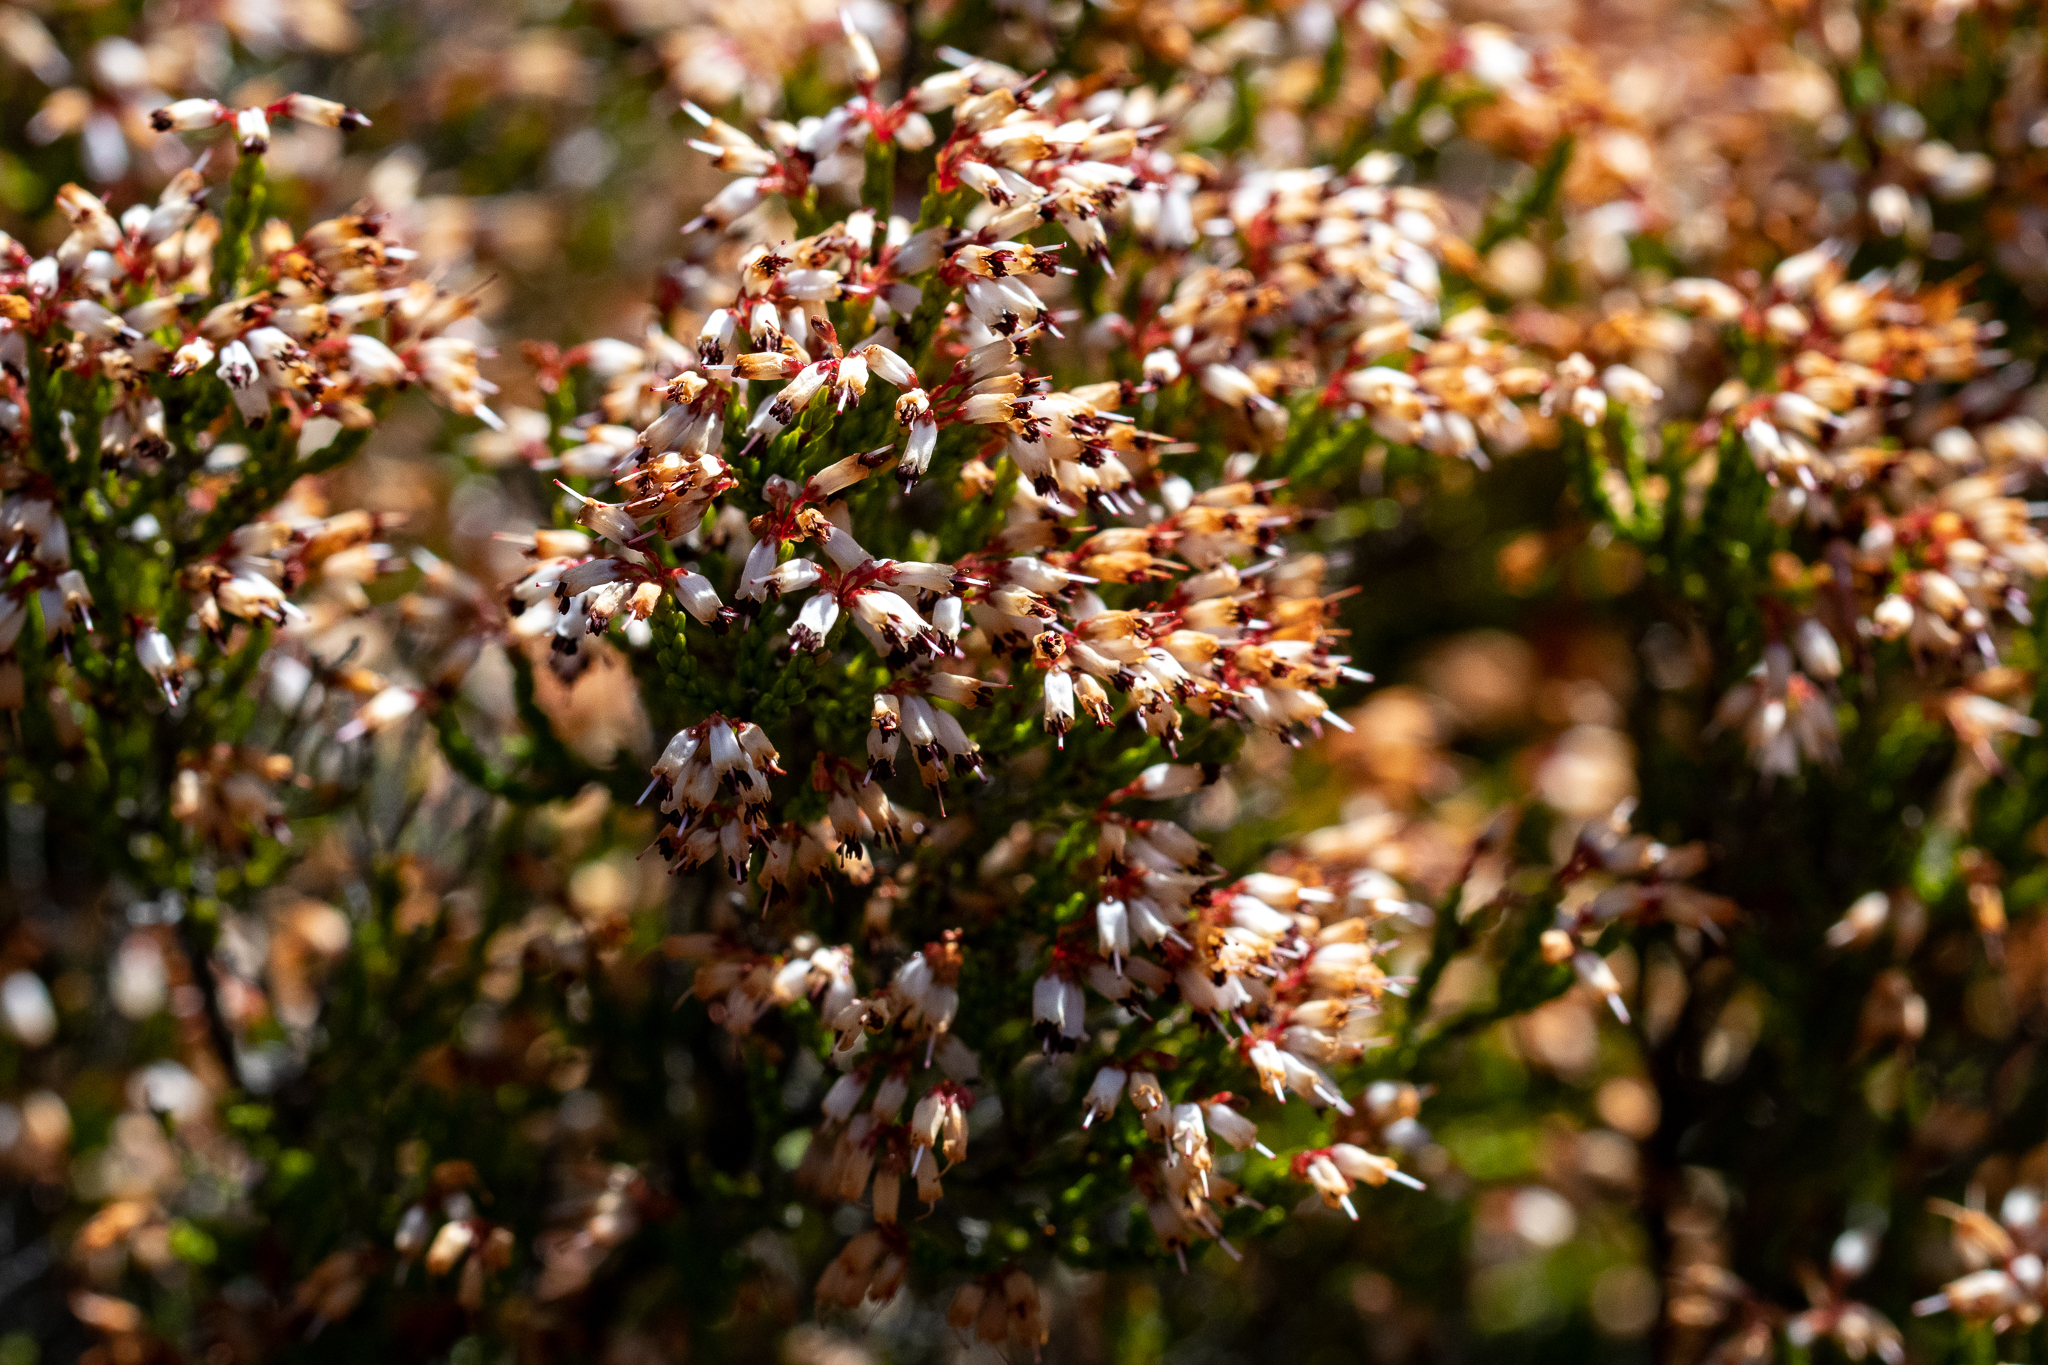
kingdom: Plantae
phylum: Tracheophyta
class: Magnoliopsida
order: Ericales
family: Ericaceae
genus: Erica
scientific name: Erica equisetifolia
